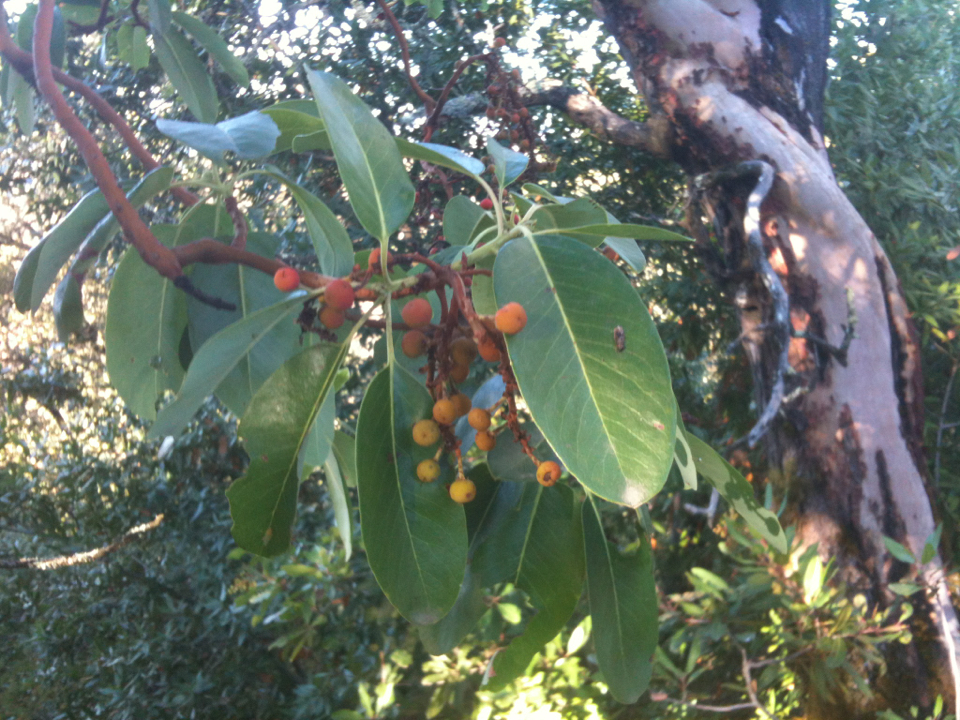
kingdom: Plantae
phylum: Tracheophyta
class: Magnoliopsida
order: Ericales
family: Ericaceae
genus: Arbutus
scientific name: Arbutus menziesii
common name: Pacific madrone
